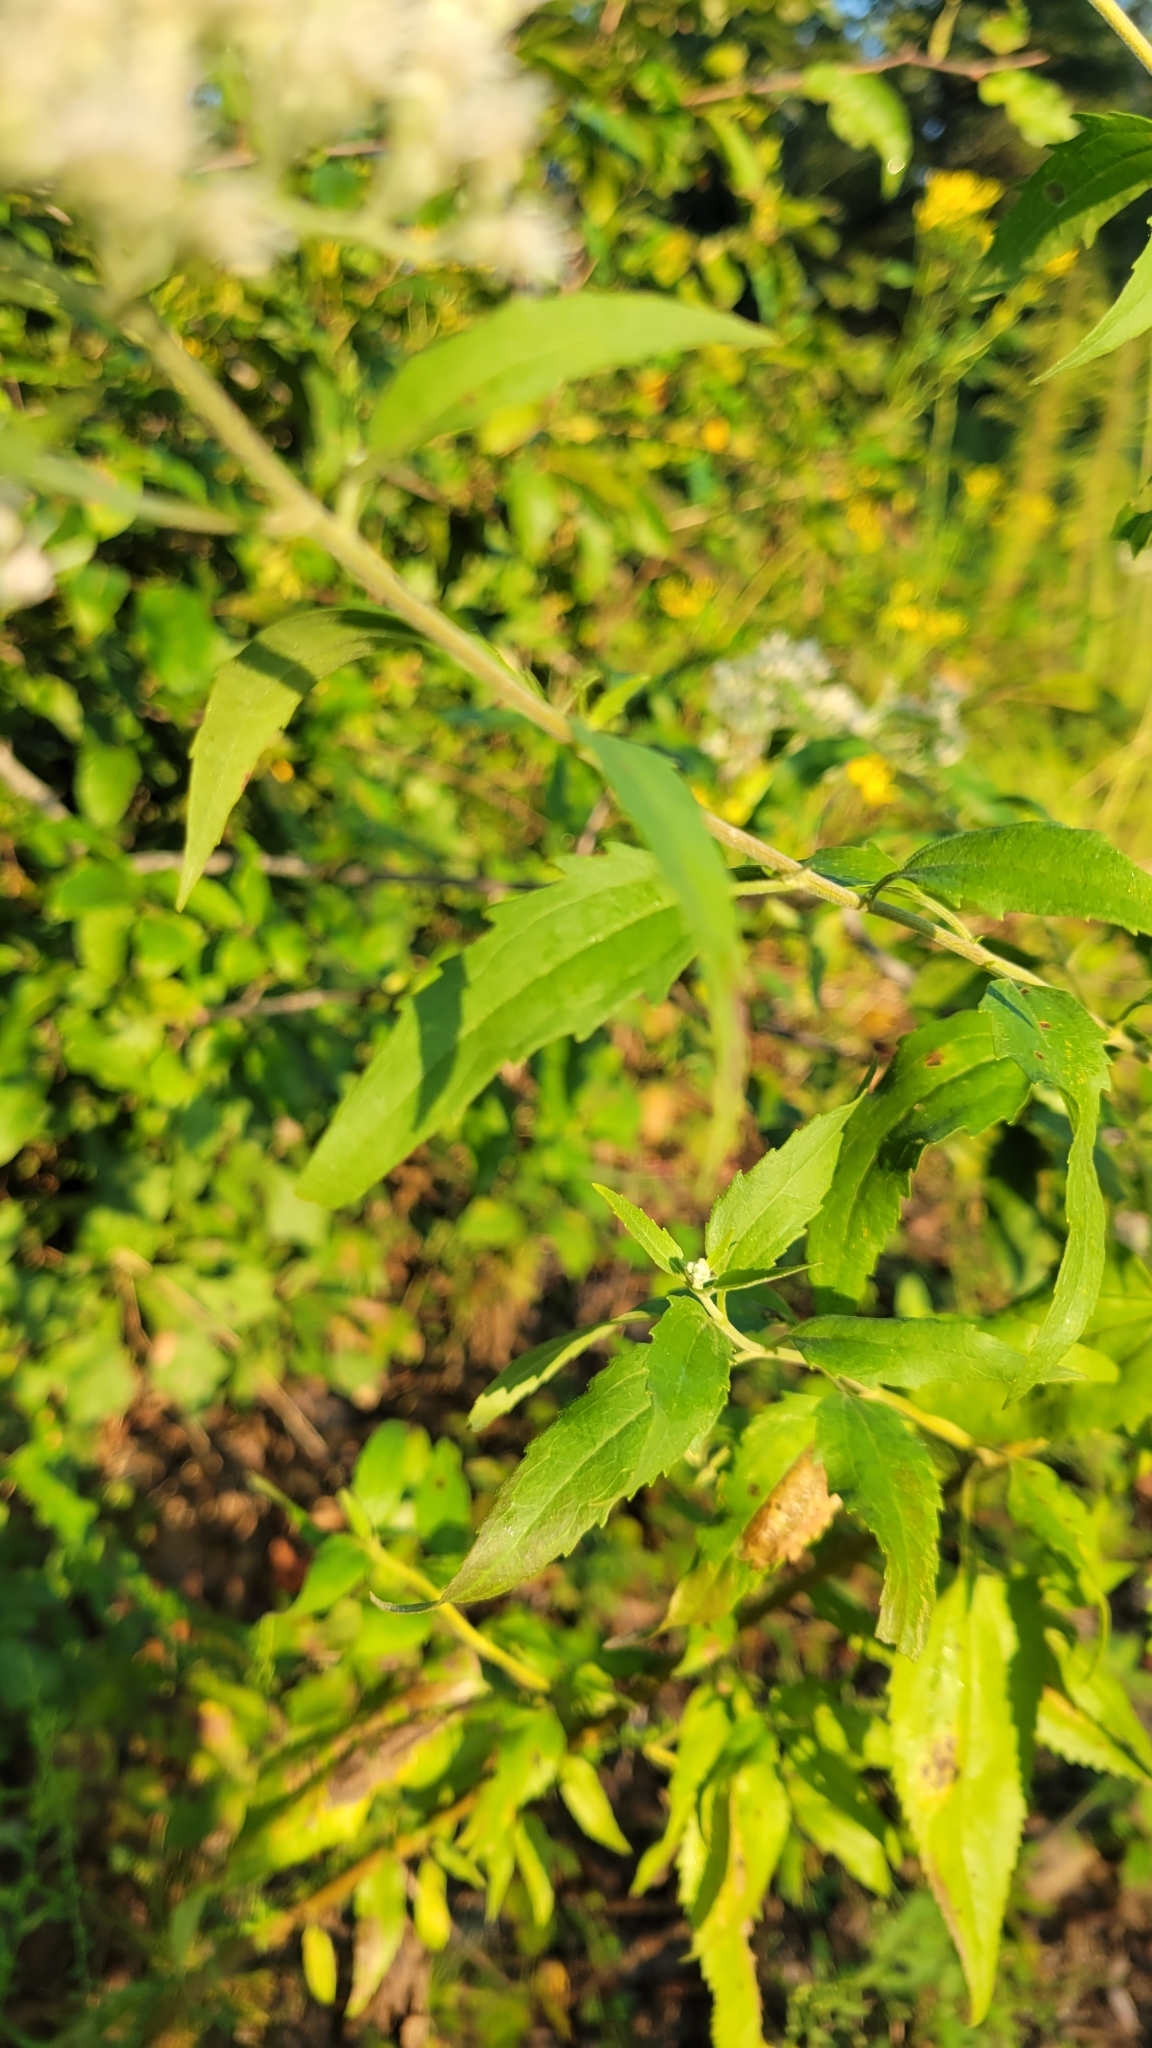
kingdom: Plantae
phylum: Tracheophyta
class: Magnoliopsida
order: Asterales
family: Asteraceae
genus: Eupatorium
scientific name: Eupatorium serotinum
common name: Late boneset
